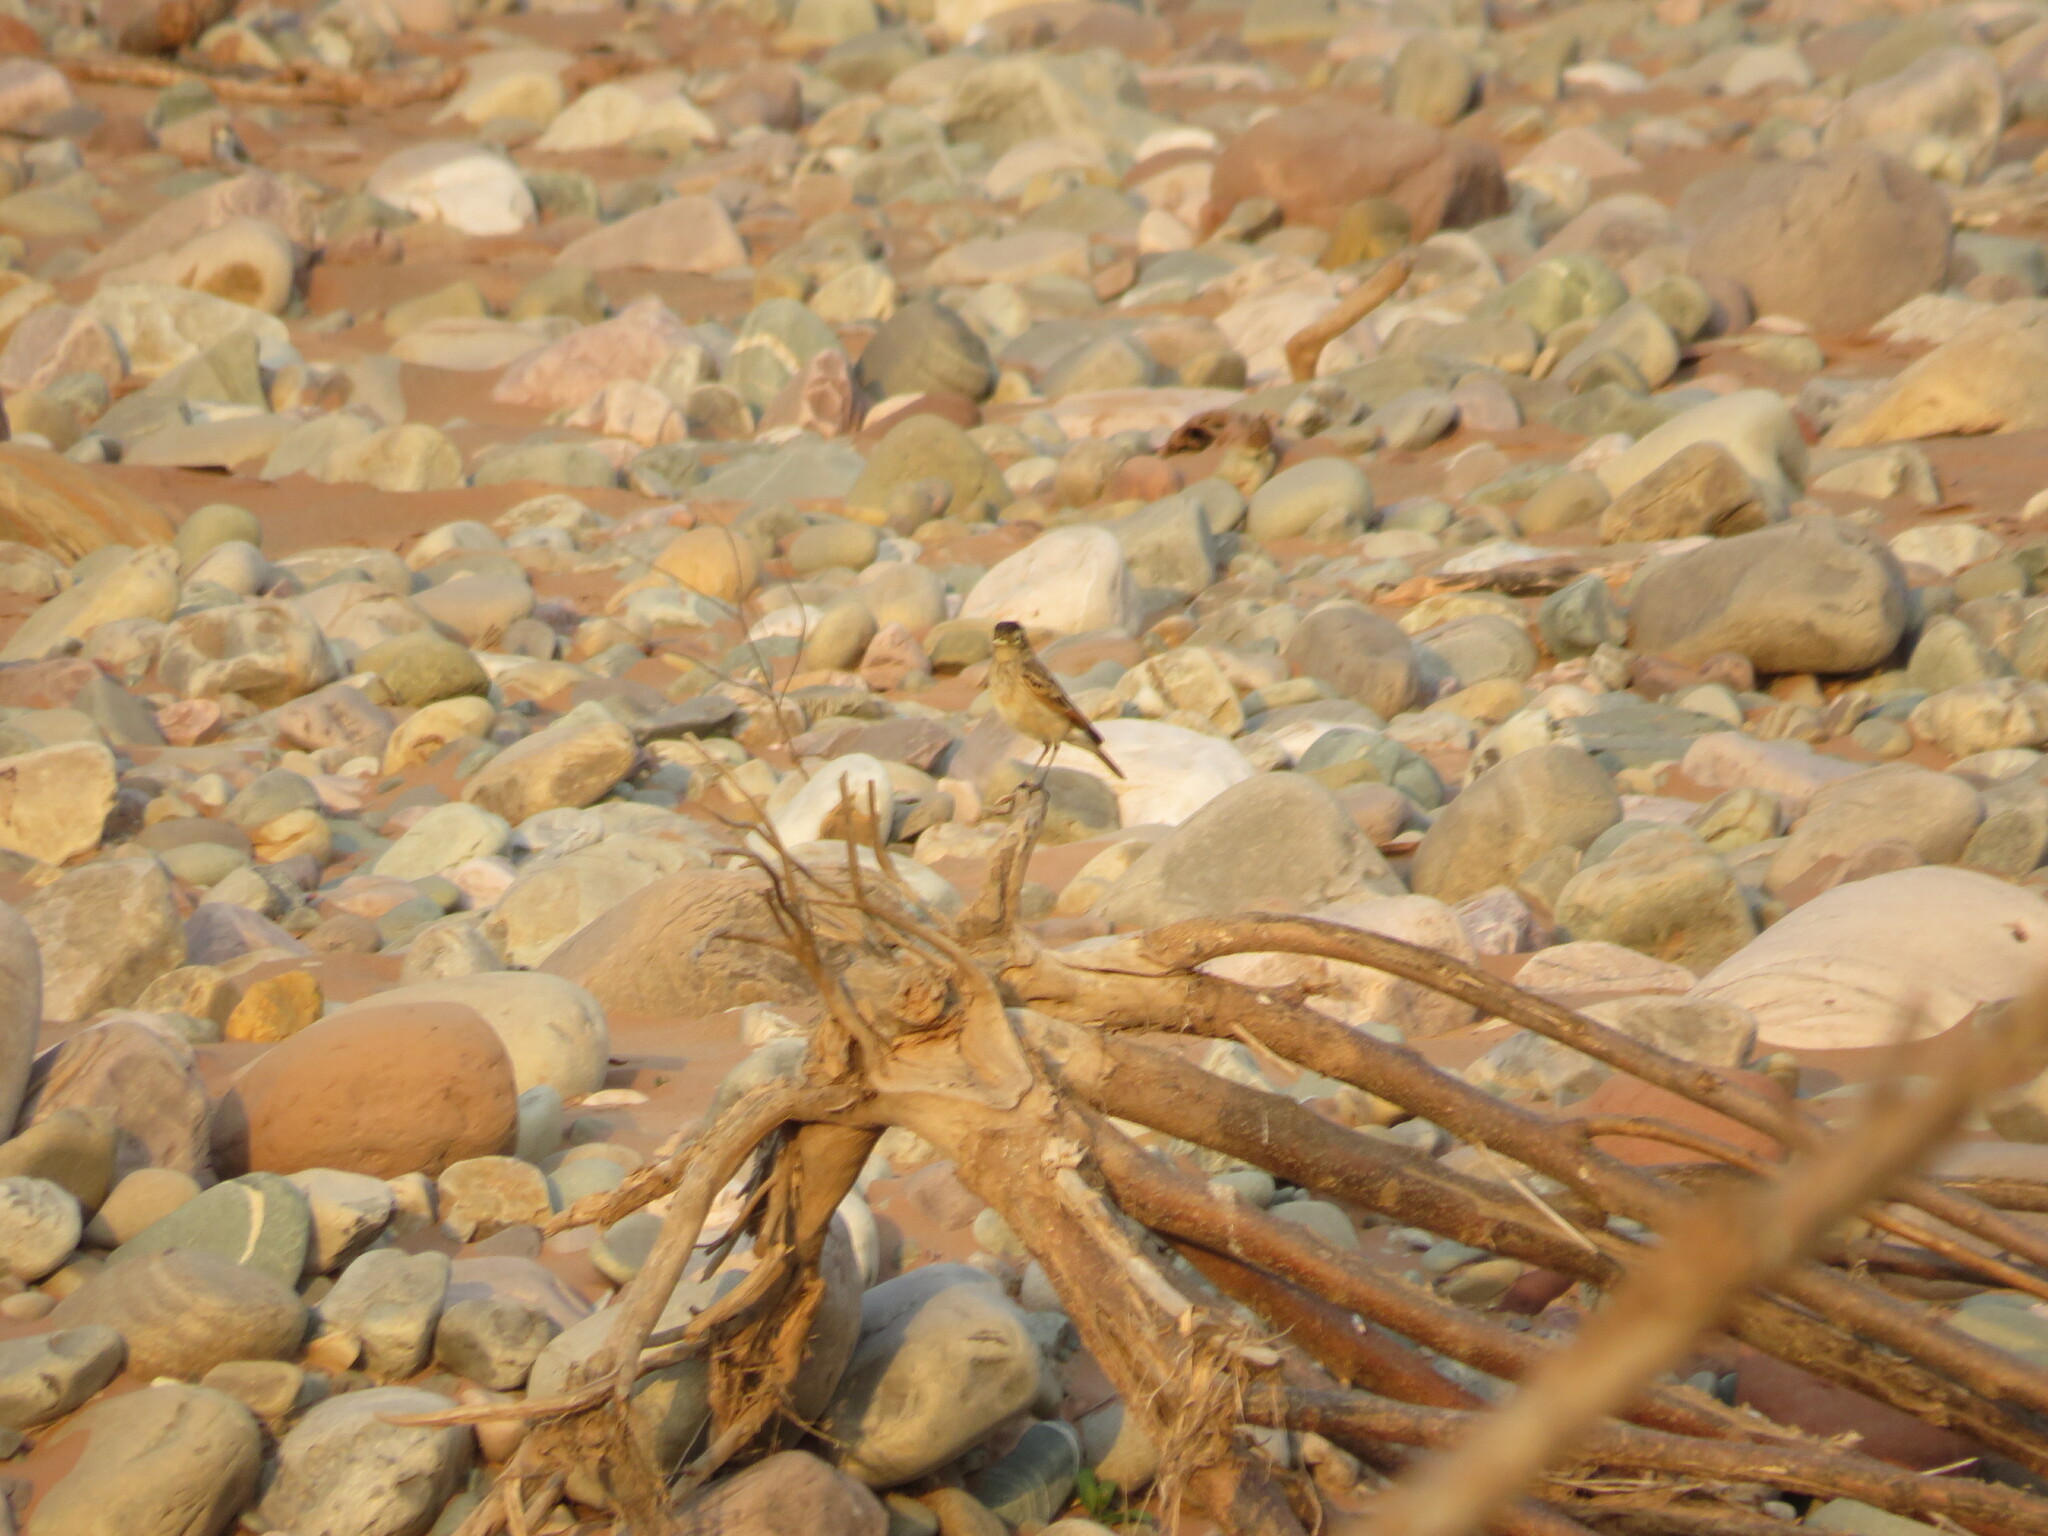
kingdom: Animalia
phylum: Chordata
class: Aves
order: Passeriformes
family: Tyrannidae
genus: Hymenops
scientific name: Hymenops perspicillatus
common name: Spectacled tyrant
